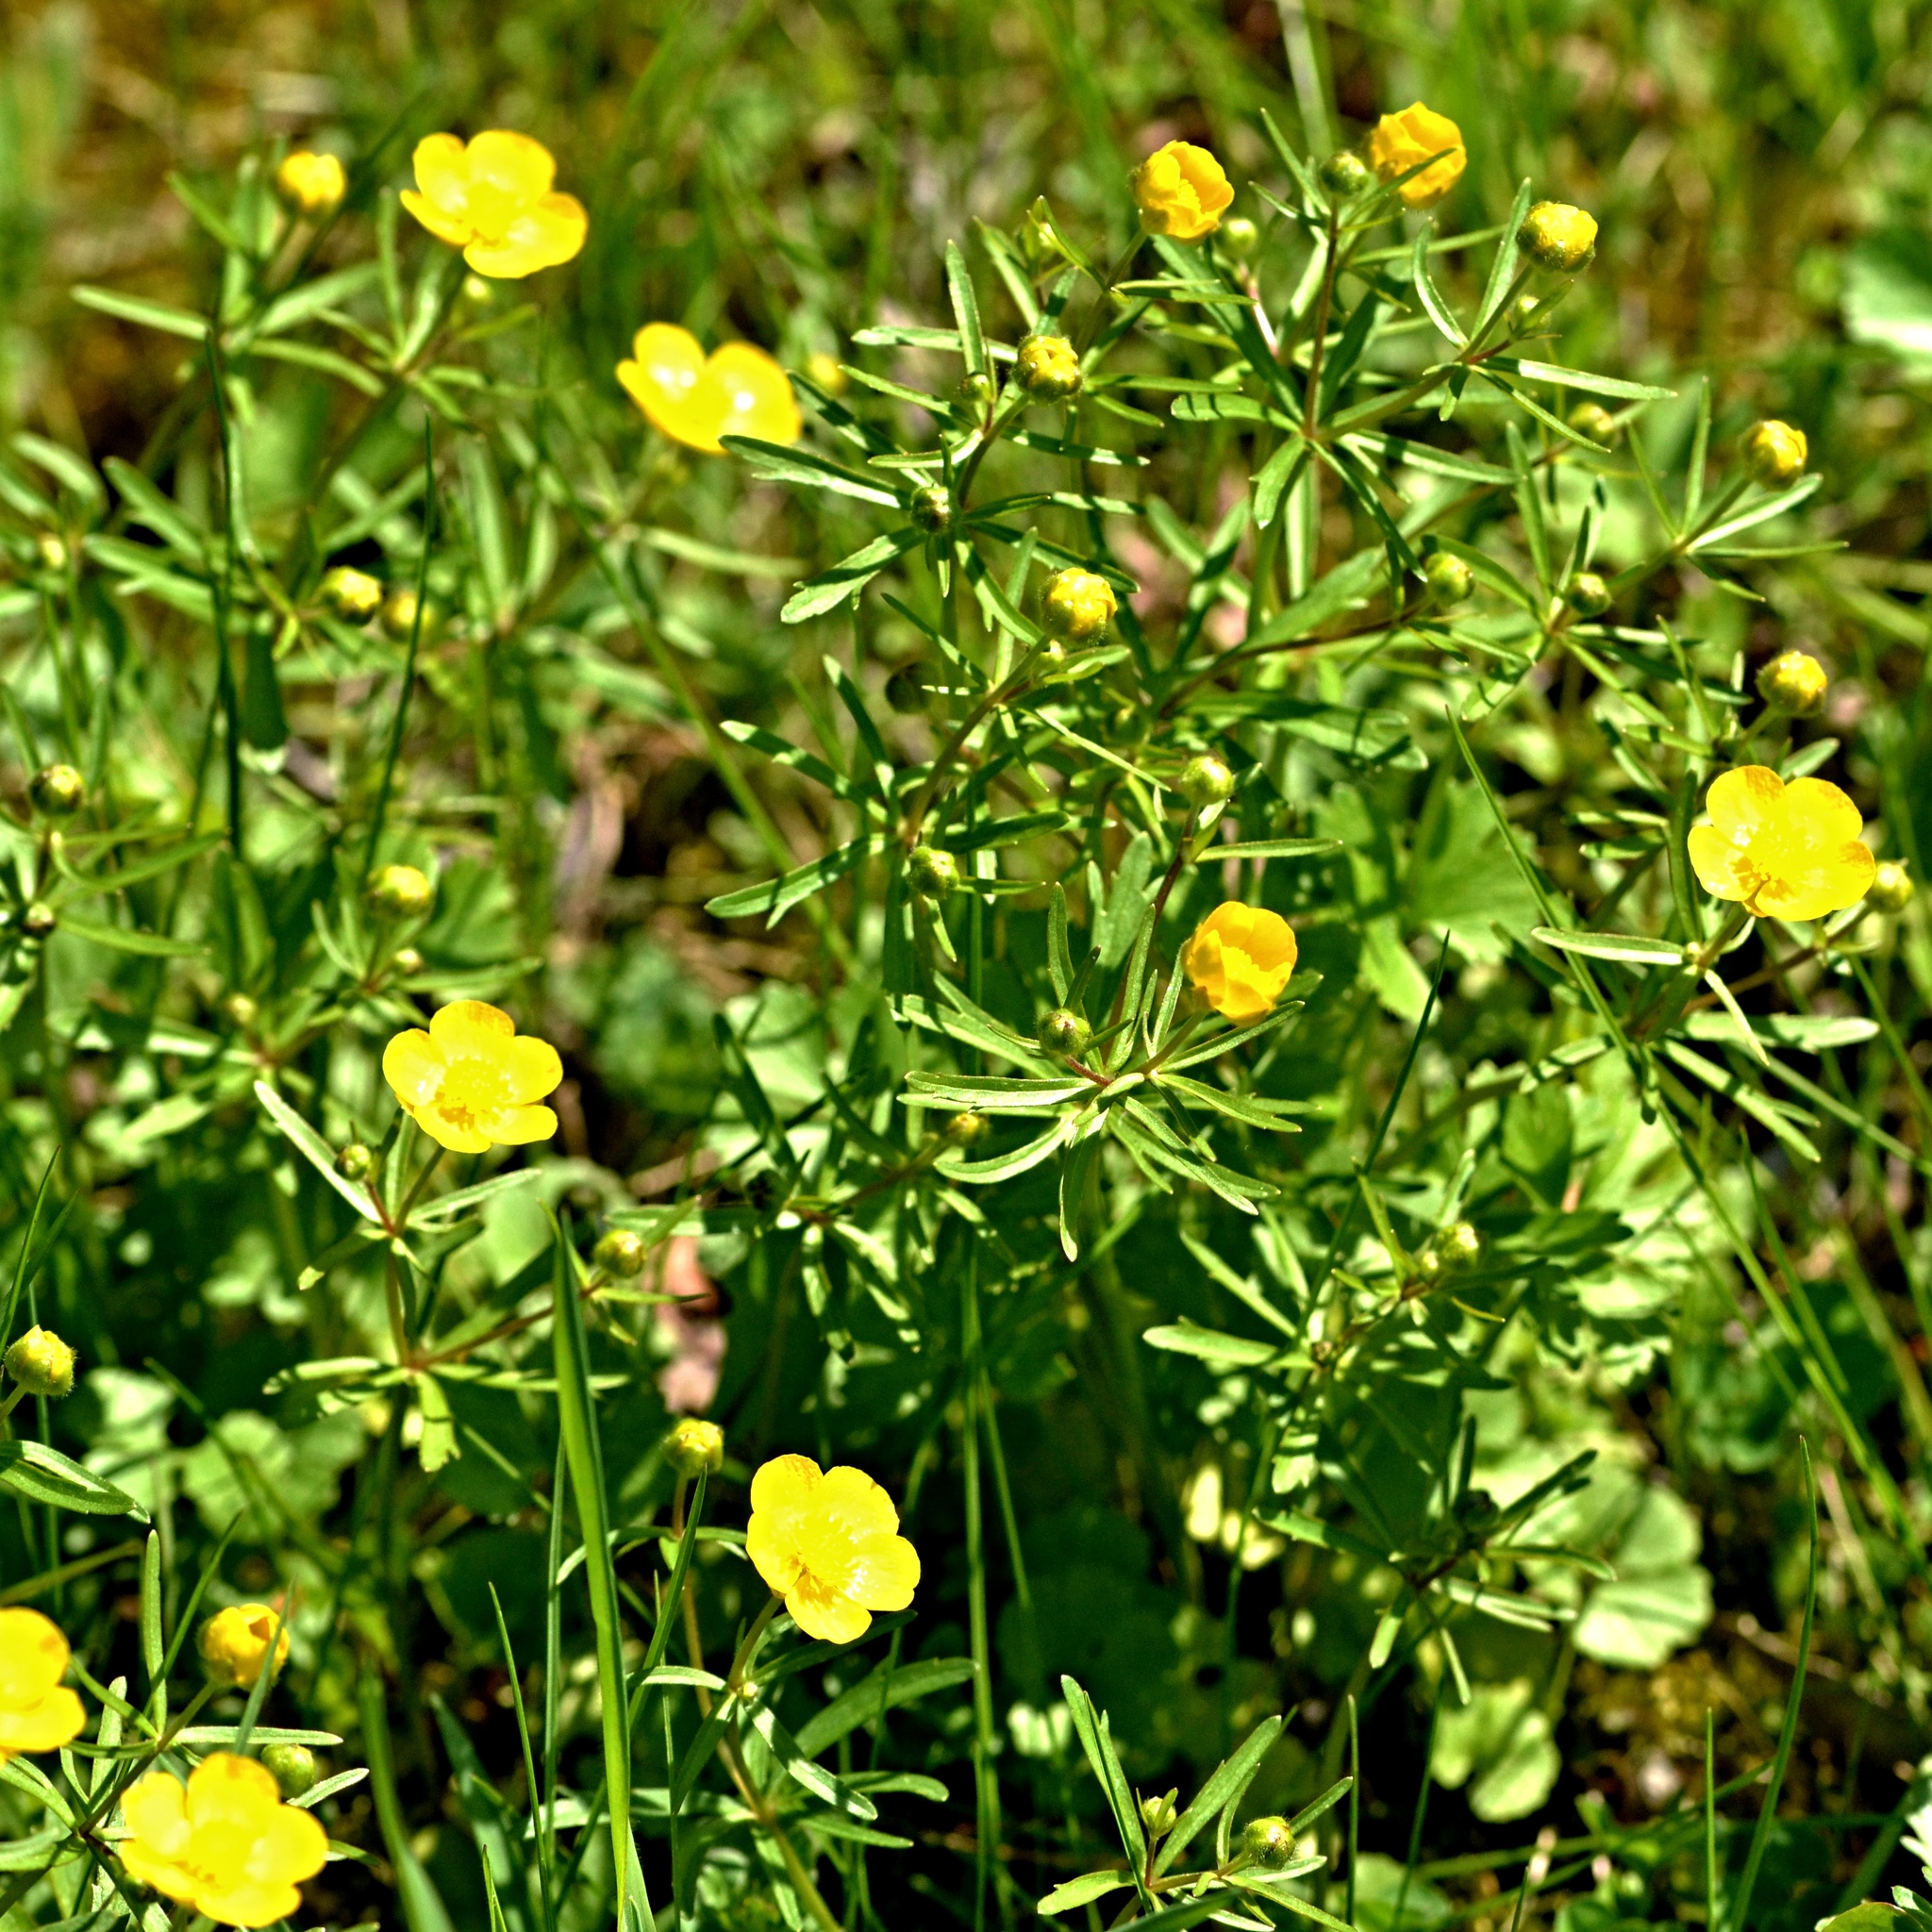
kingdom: Plantae
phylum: Tracheophyta
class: Magnoliopsida
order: Ranunculales
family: Ranunculaceae
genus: Ranunculus
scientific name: Ranunculus auricomus
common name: Goldilocks buttercup
